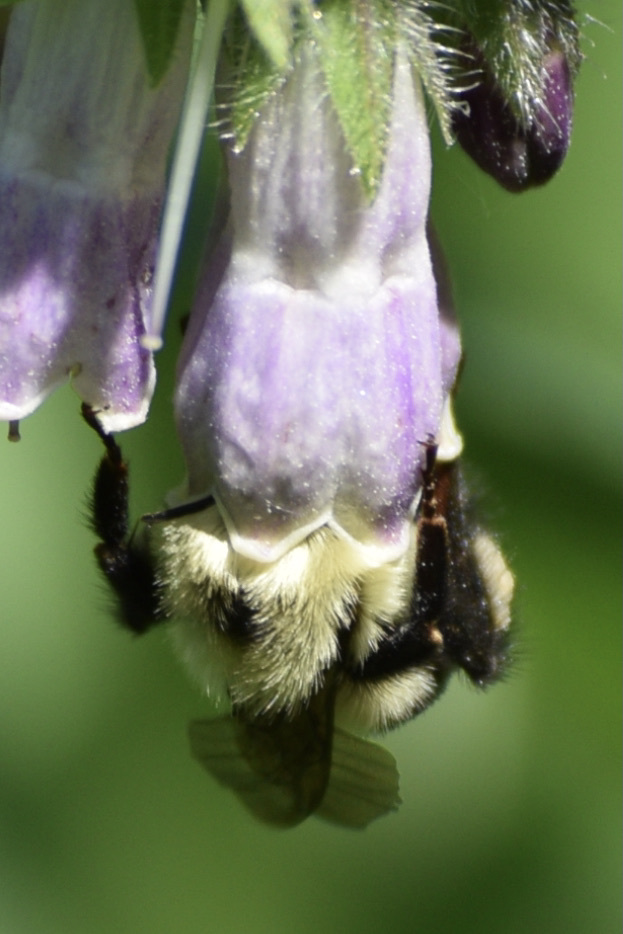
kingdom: Animalia
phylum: Arthropoda
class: Insecta
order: Hymenoptera
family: Apidae
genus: Bombus
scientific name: Bombus bimaculatus
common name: Two-spotted bumble bee
